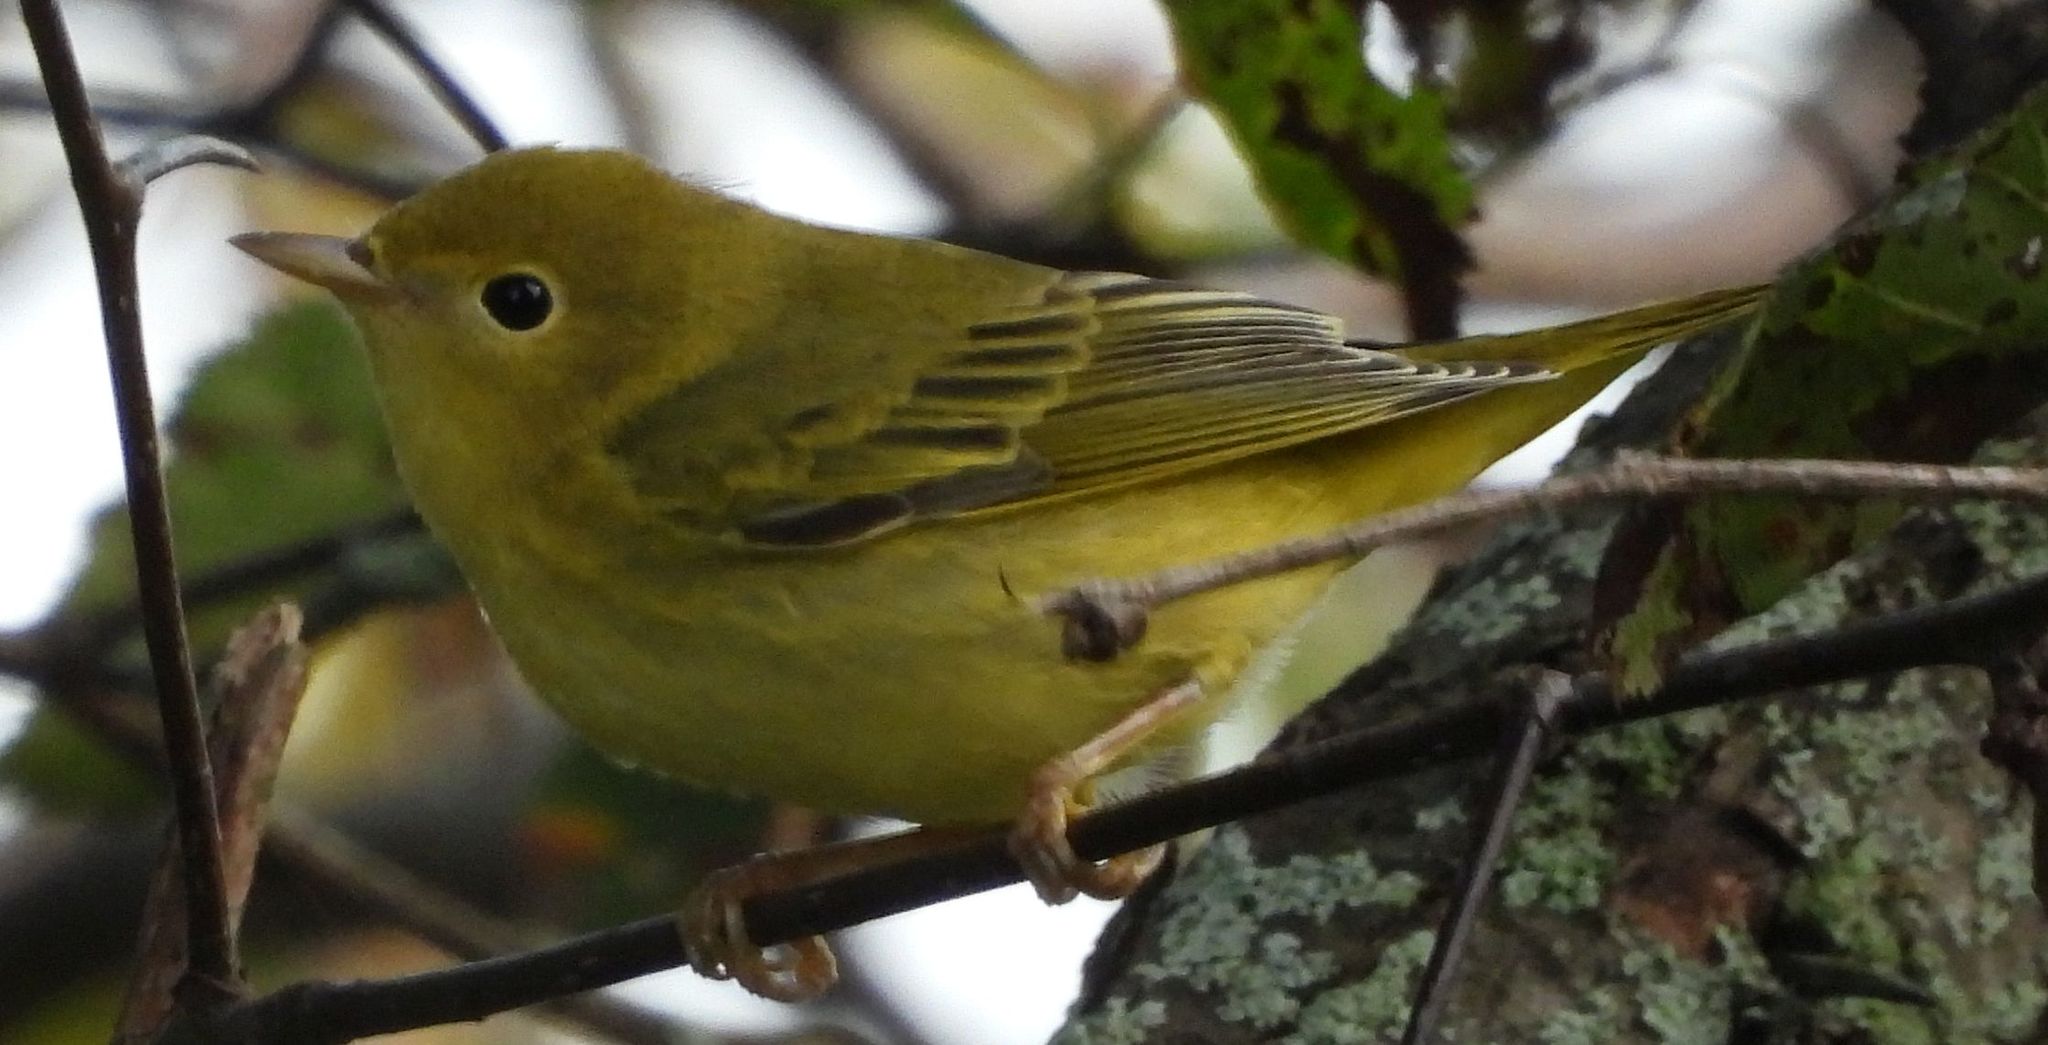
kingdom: Animalia
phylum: Chordata
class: Aves
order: Passeriformes
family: Parulidae
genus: Setophaga
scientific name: Setophaga petechia
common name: Yellow warbler
